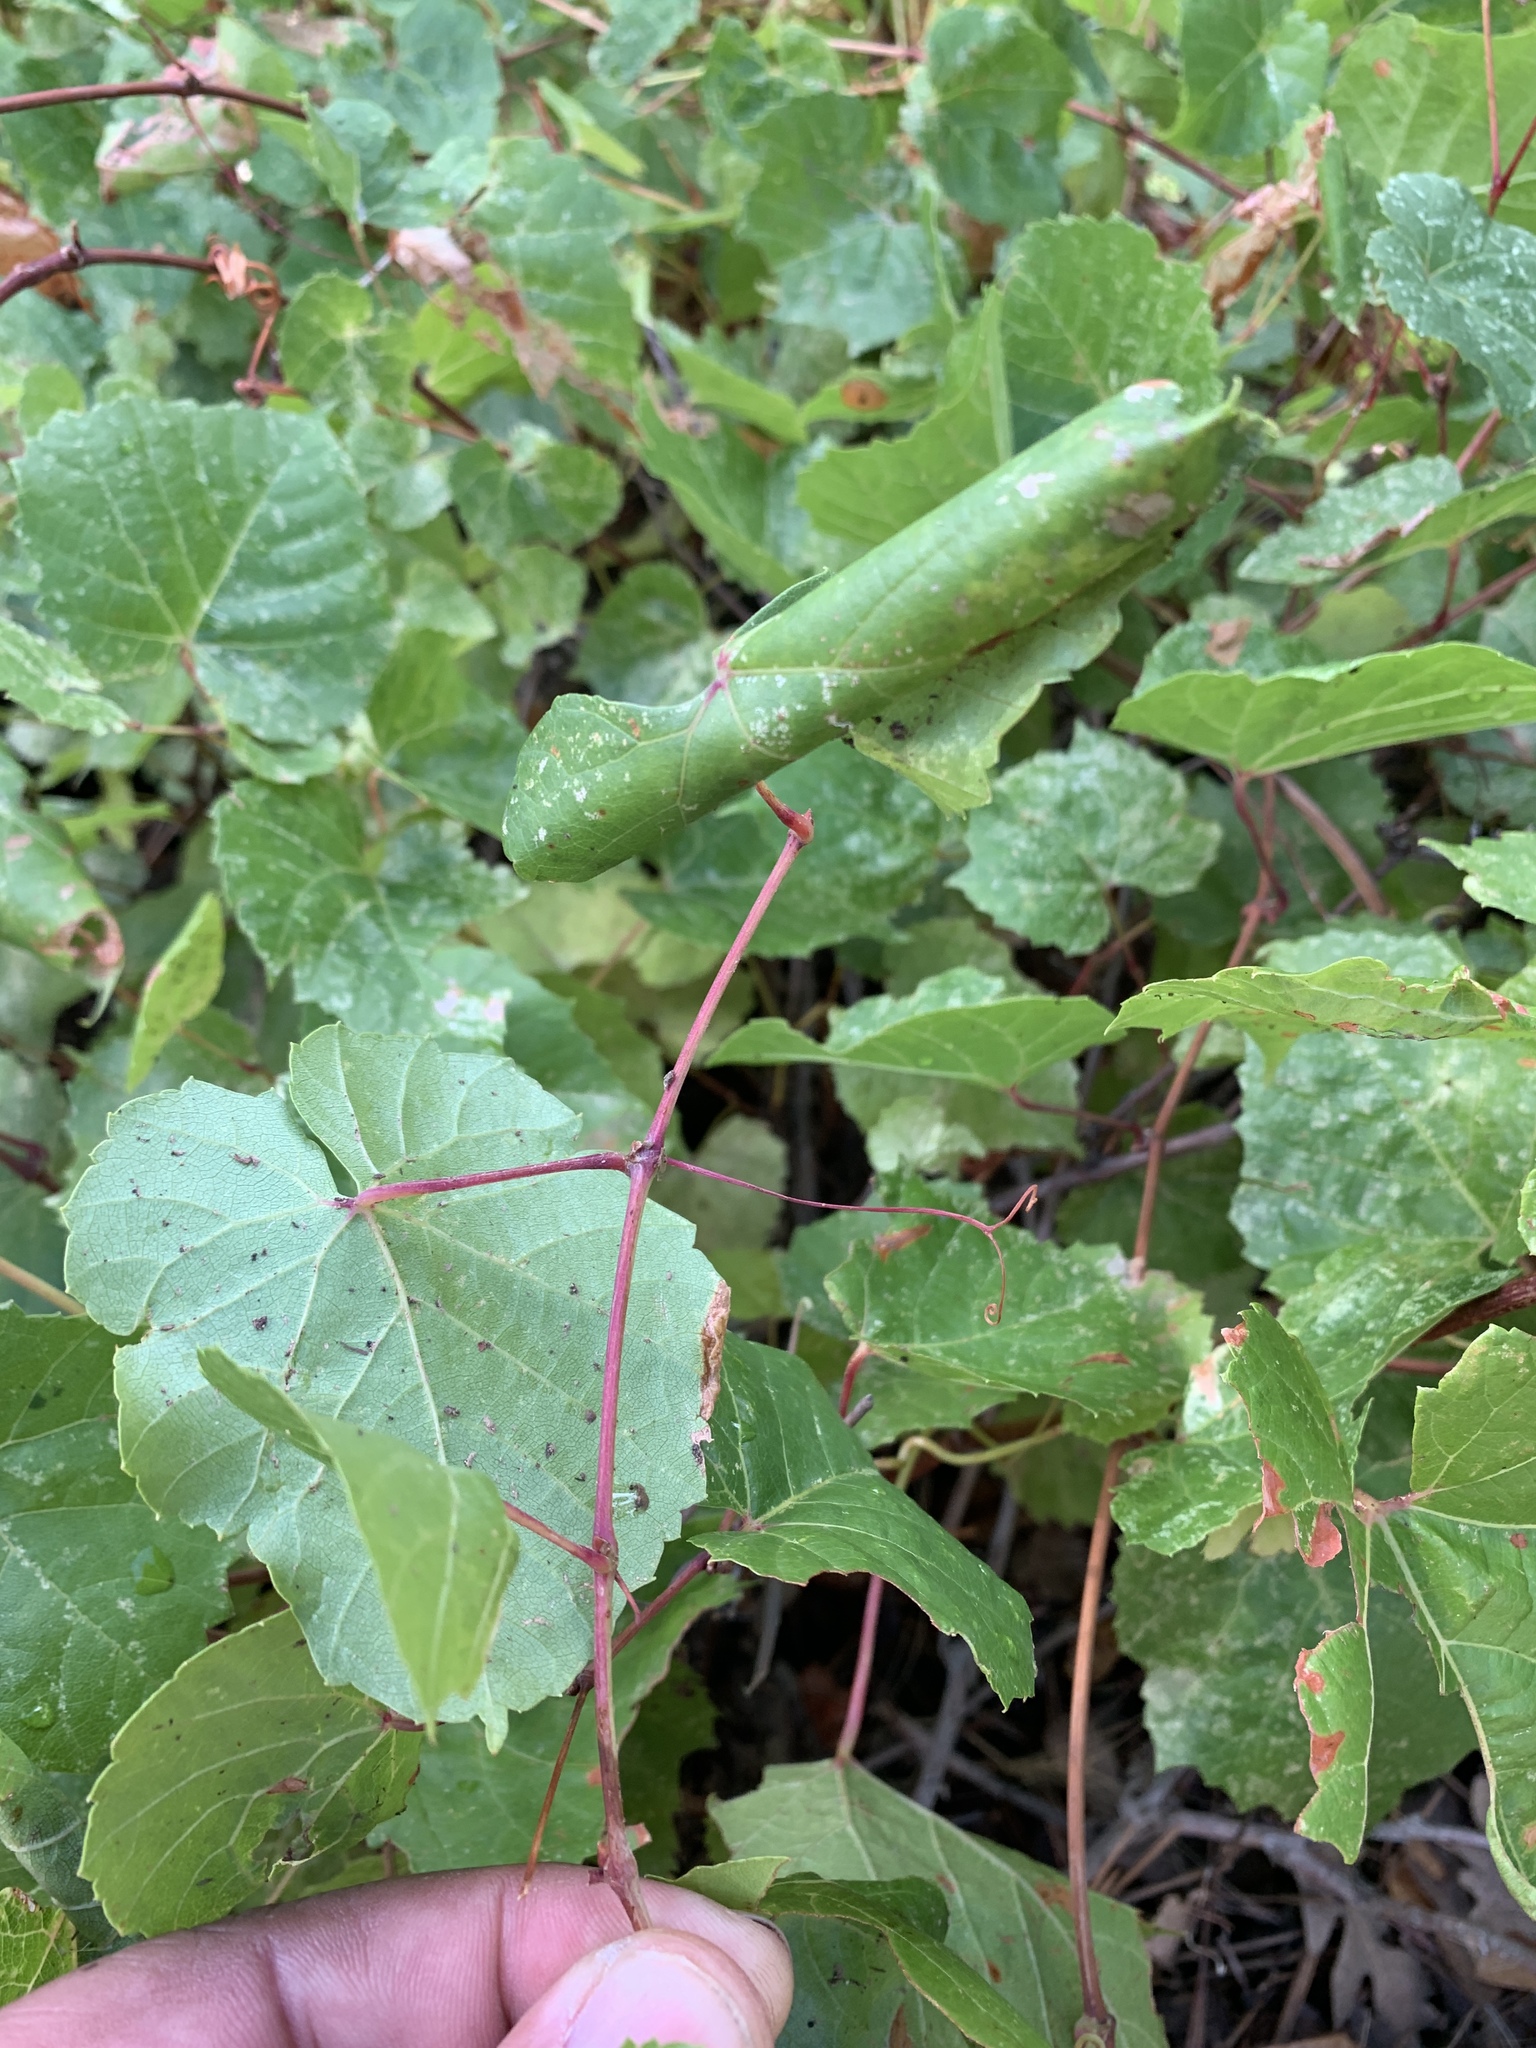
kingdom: Plantae
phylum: Tracheophyta
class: Magnoliopsida
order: Vitales
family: Vitaceae
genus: Vitis
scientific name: Vitis arizonica
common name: Canyon grape
